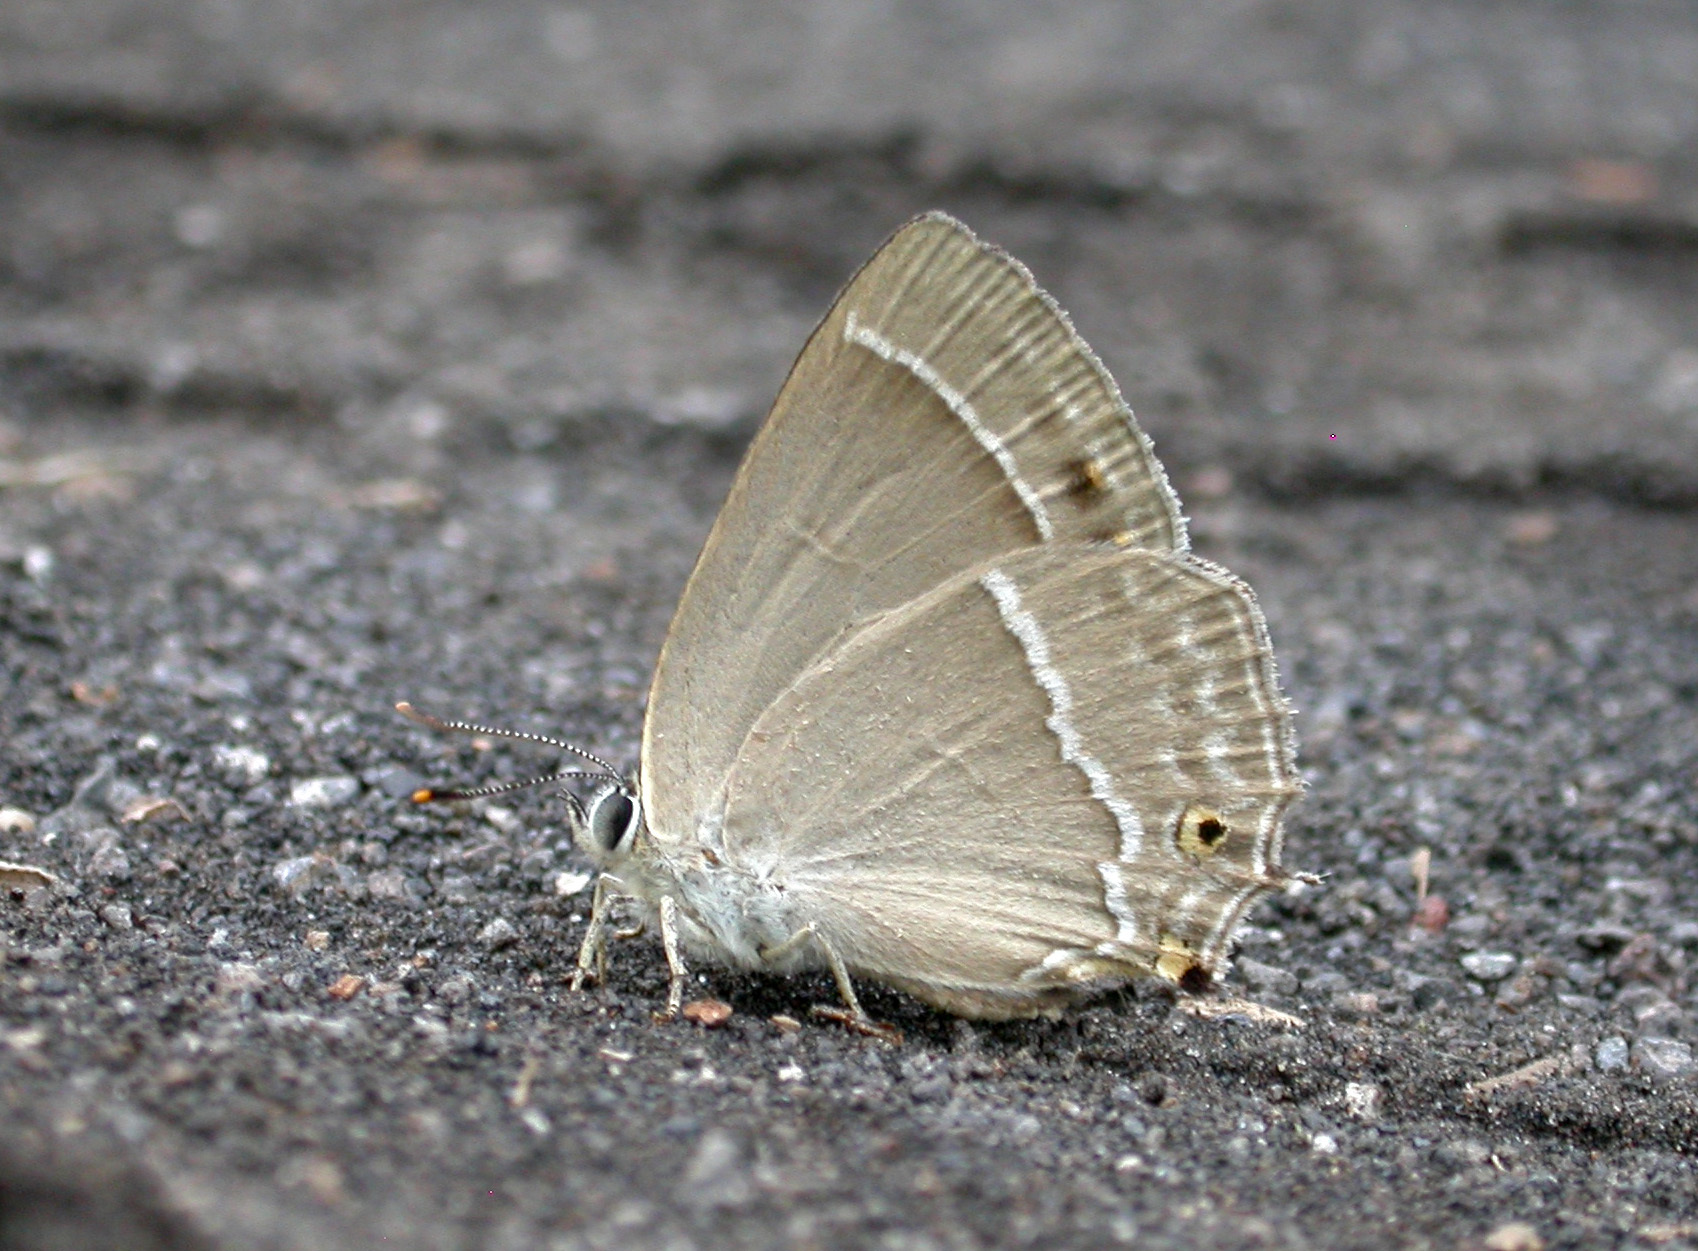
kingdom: Animalia
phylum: Arthropoda
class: Insecta
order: Lepidoptera
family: Lycaenidae
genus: Quercusia
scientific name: Quercusia quercus
